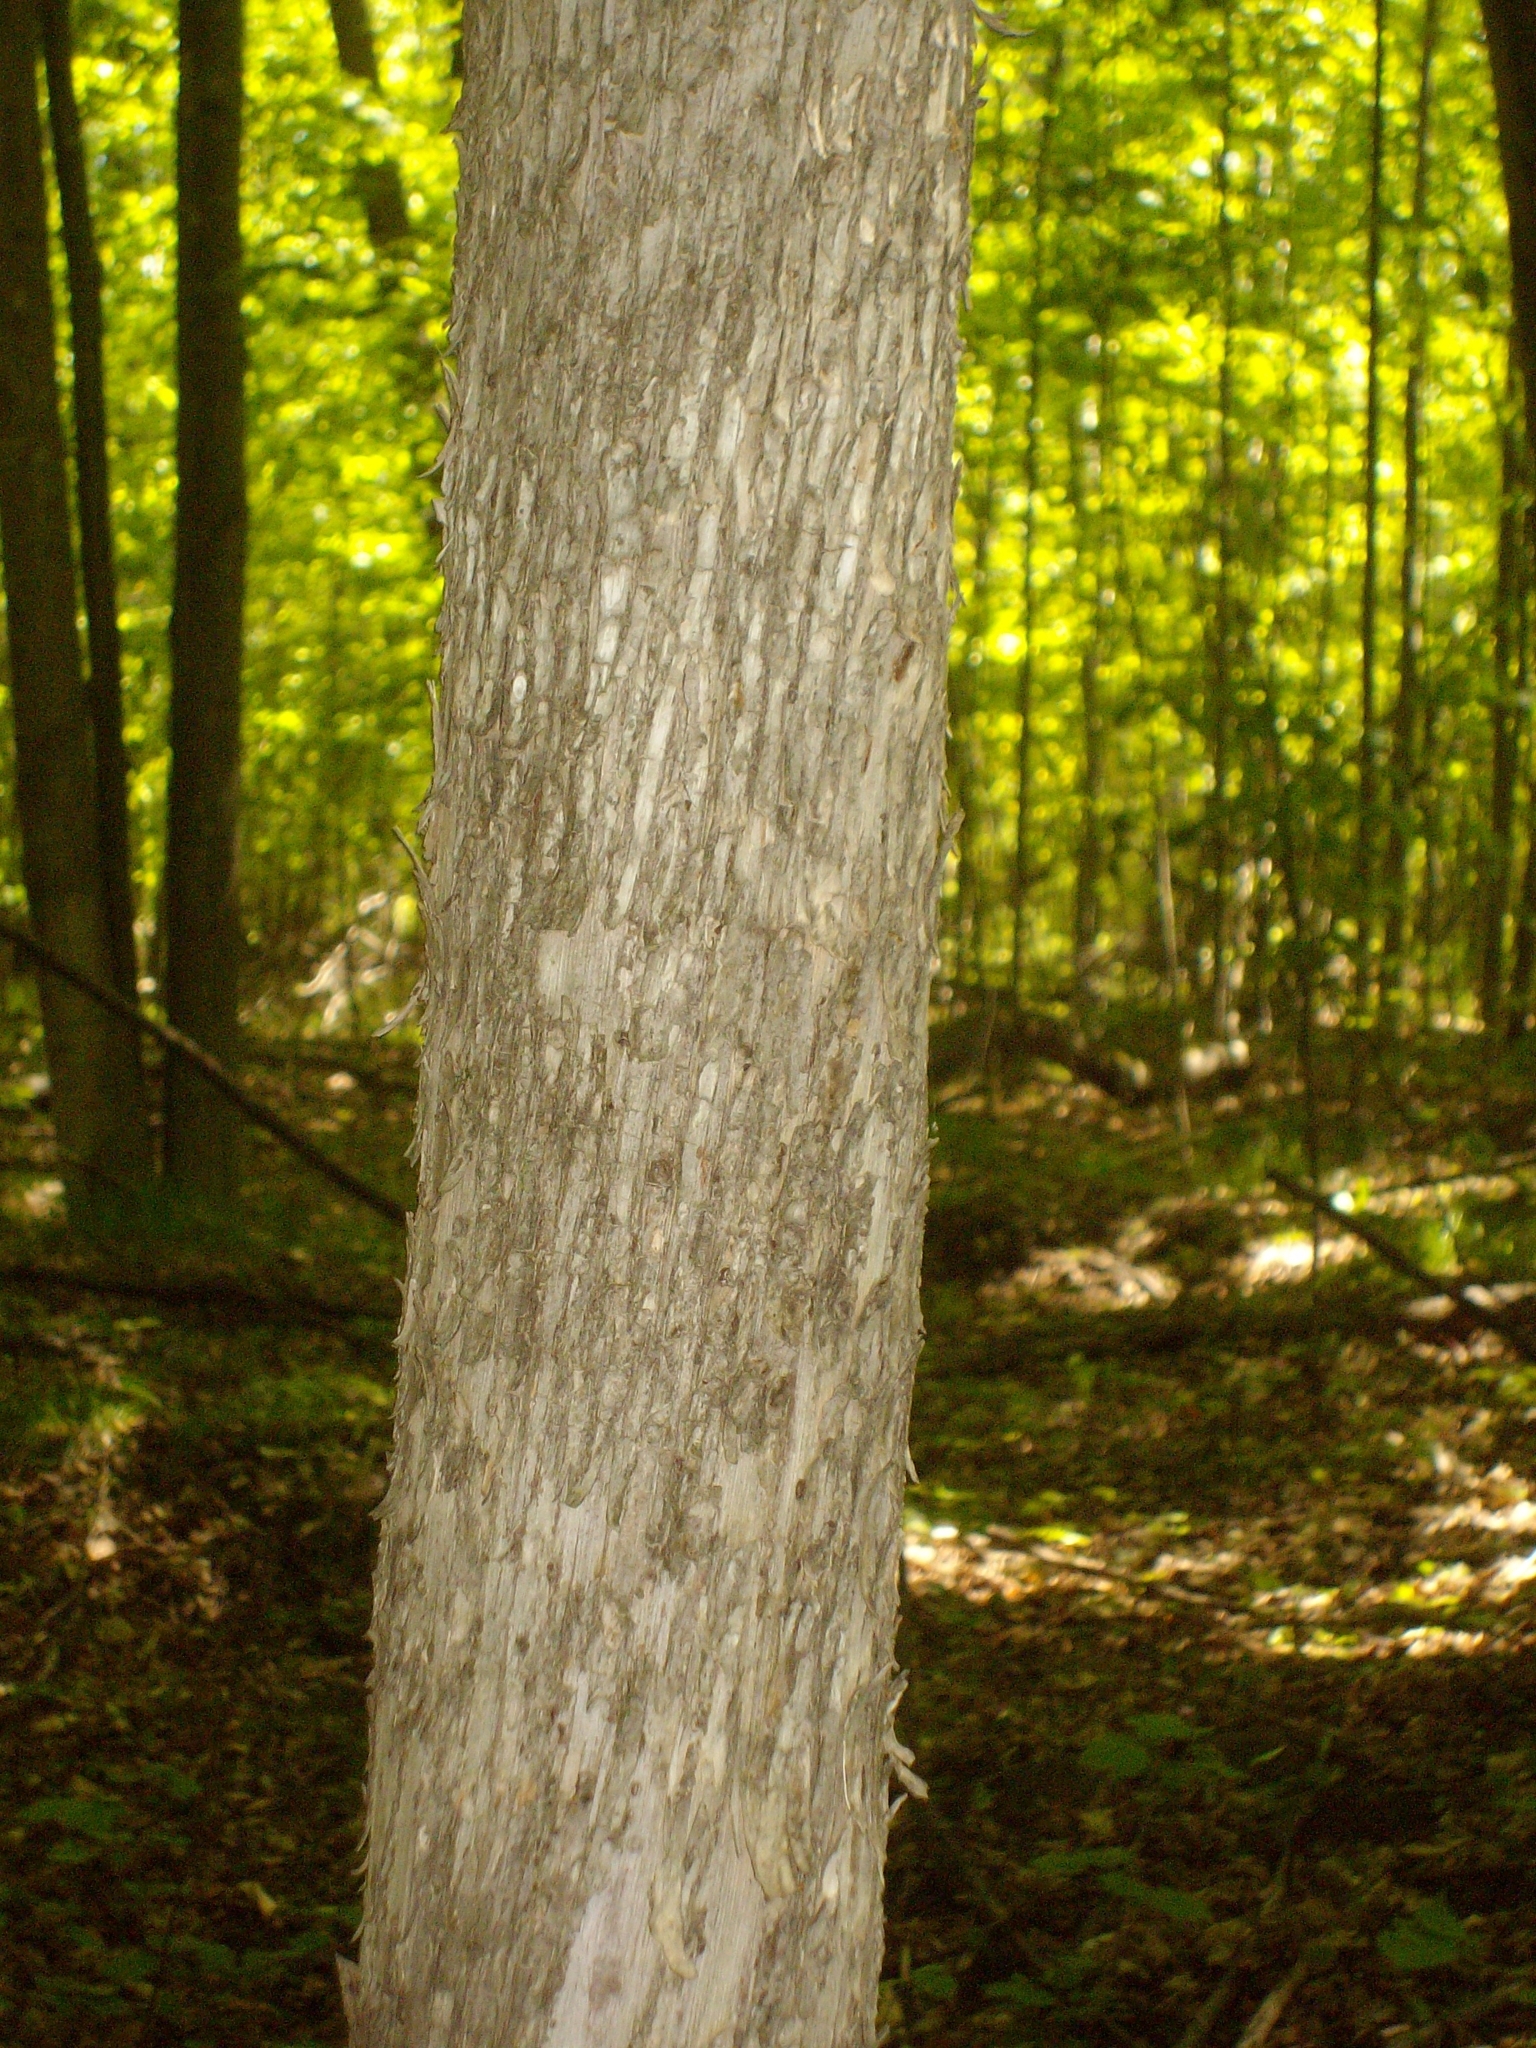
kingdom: Plantae
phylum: Tracheophyta
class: Magnoliopsida
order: Fagales
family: Betulaceae
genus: Ostrya
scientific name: Ostrya virginiana
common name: Ironwood
